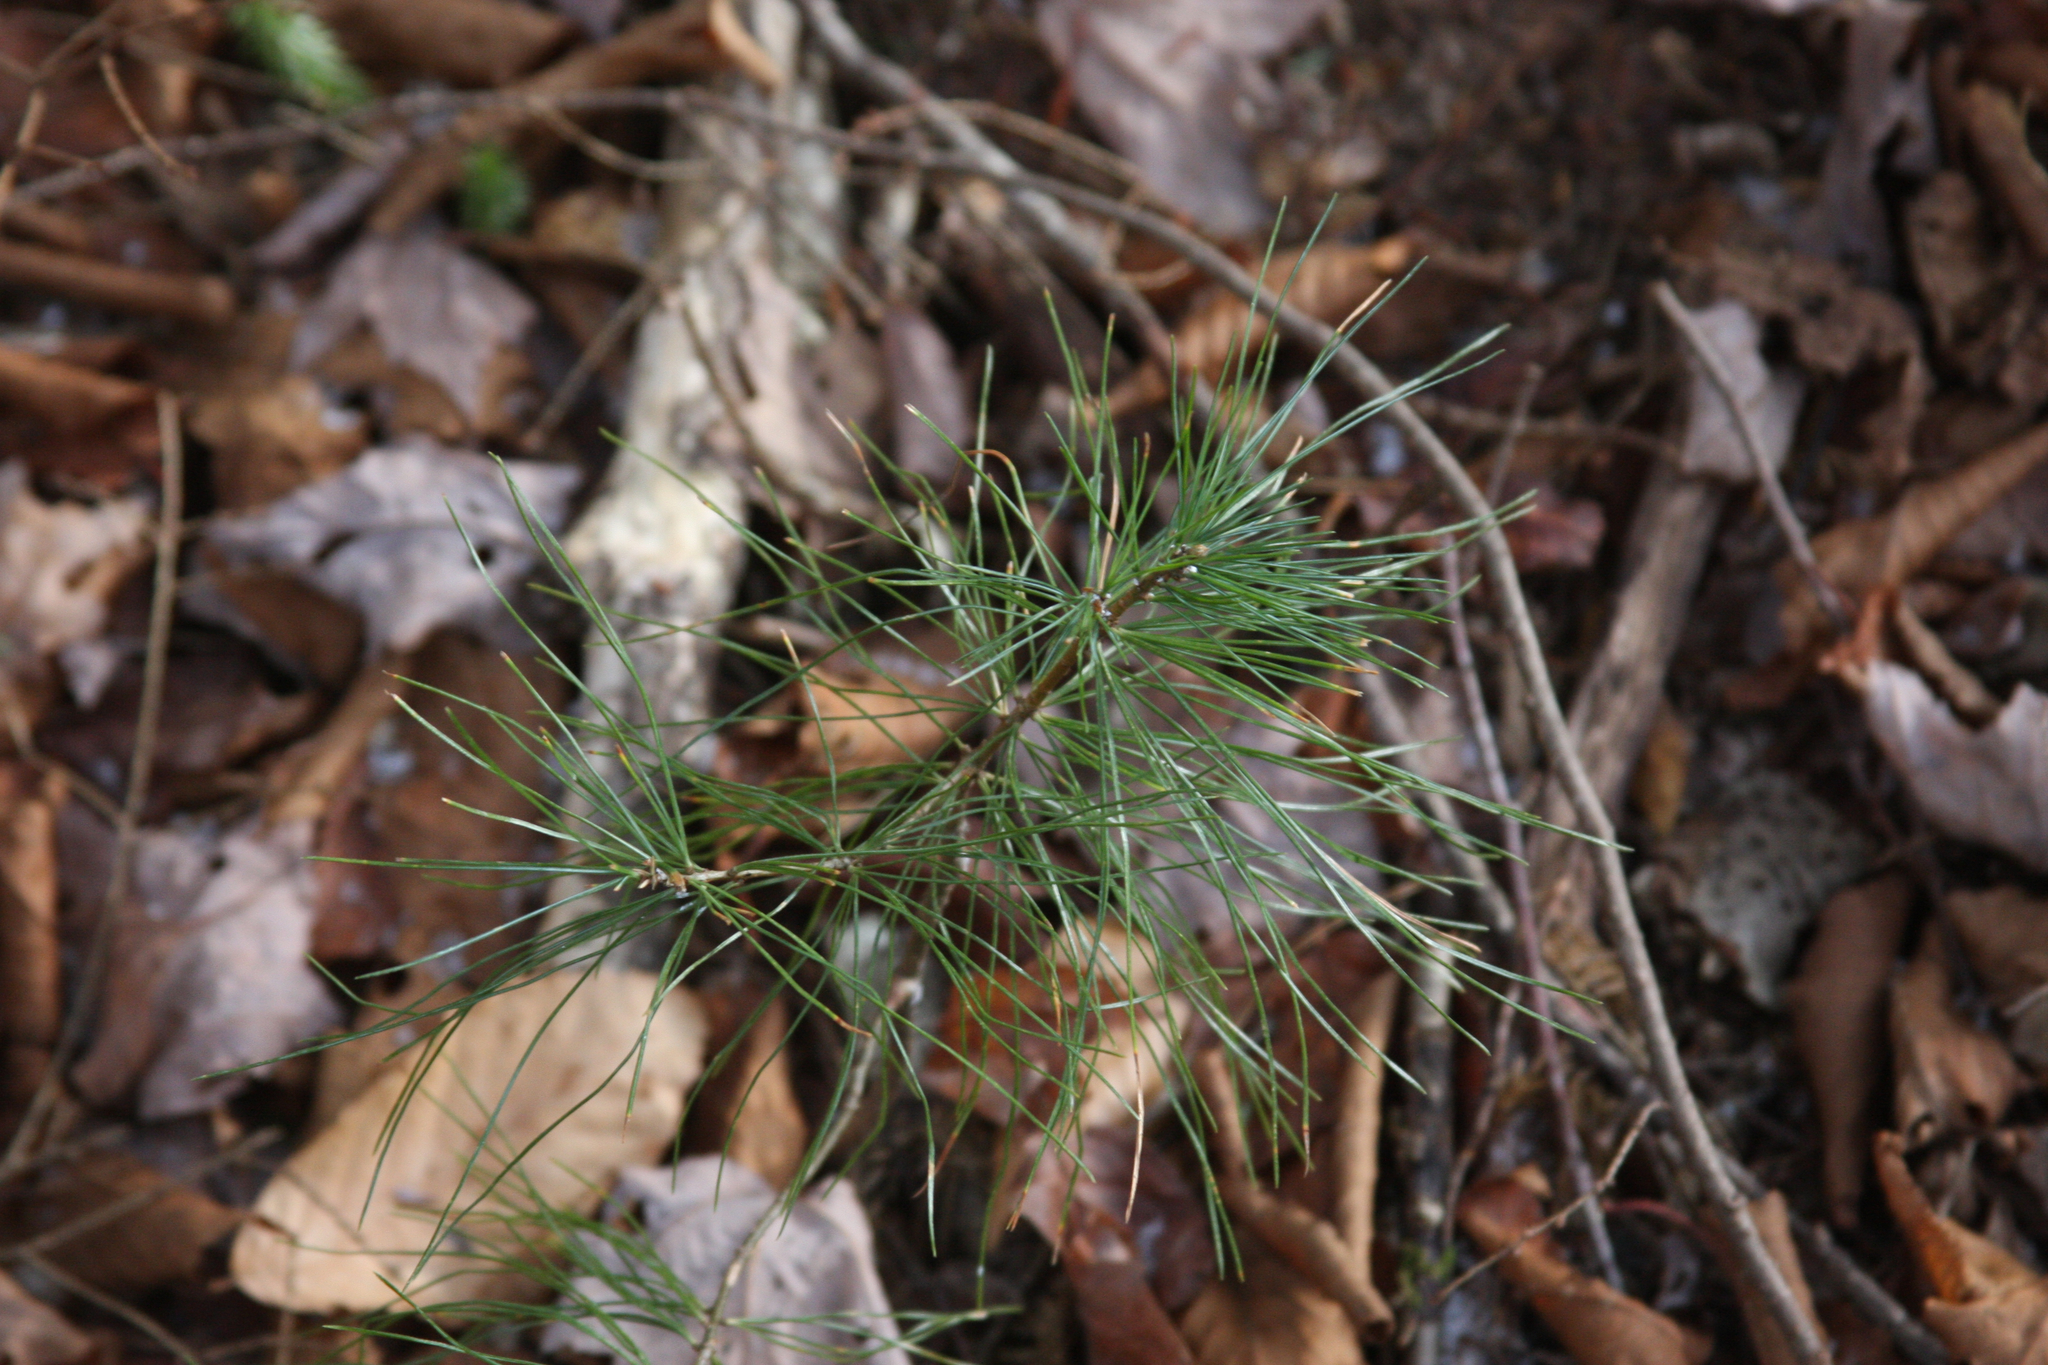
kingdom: Plantae
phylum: Tracheophyta
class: Pinopsida
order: Pinales
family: Pinaceae
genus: Pinus
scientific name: Pinus strobus
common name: Weymouth pine
